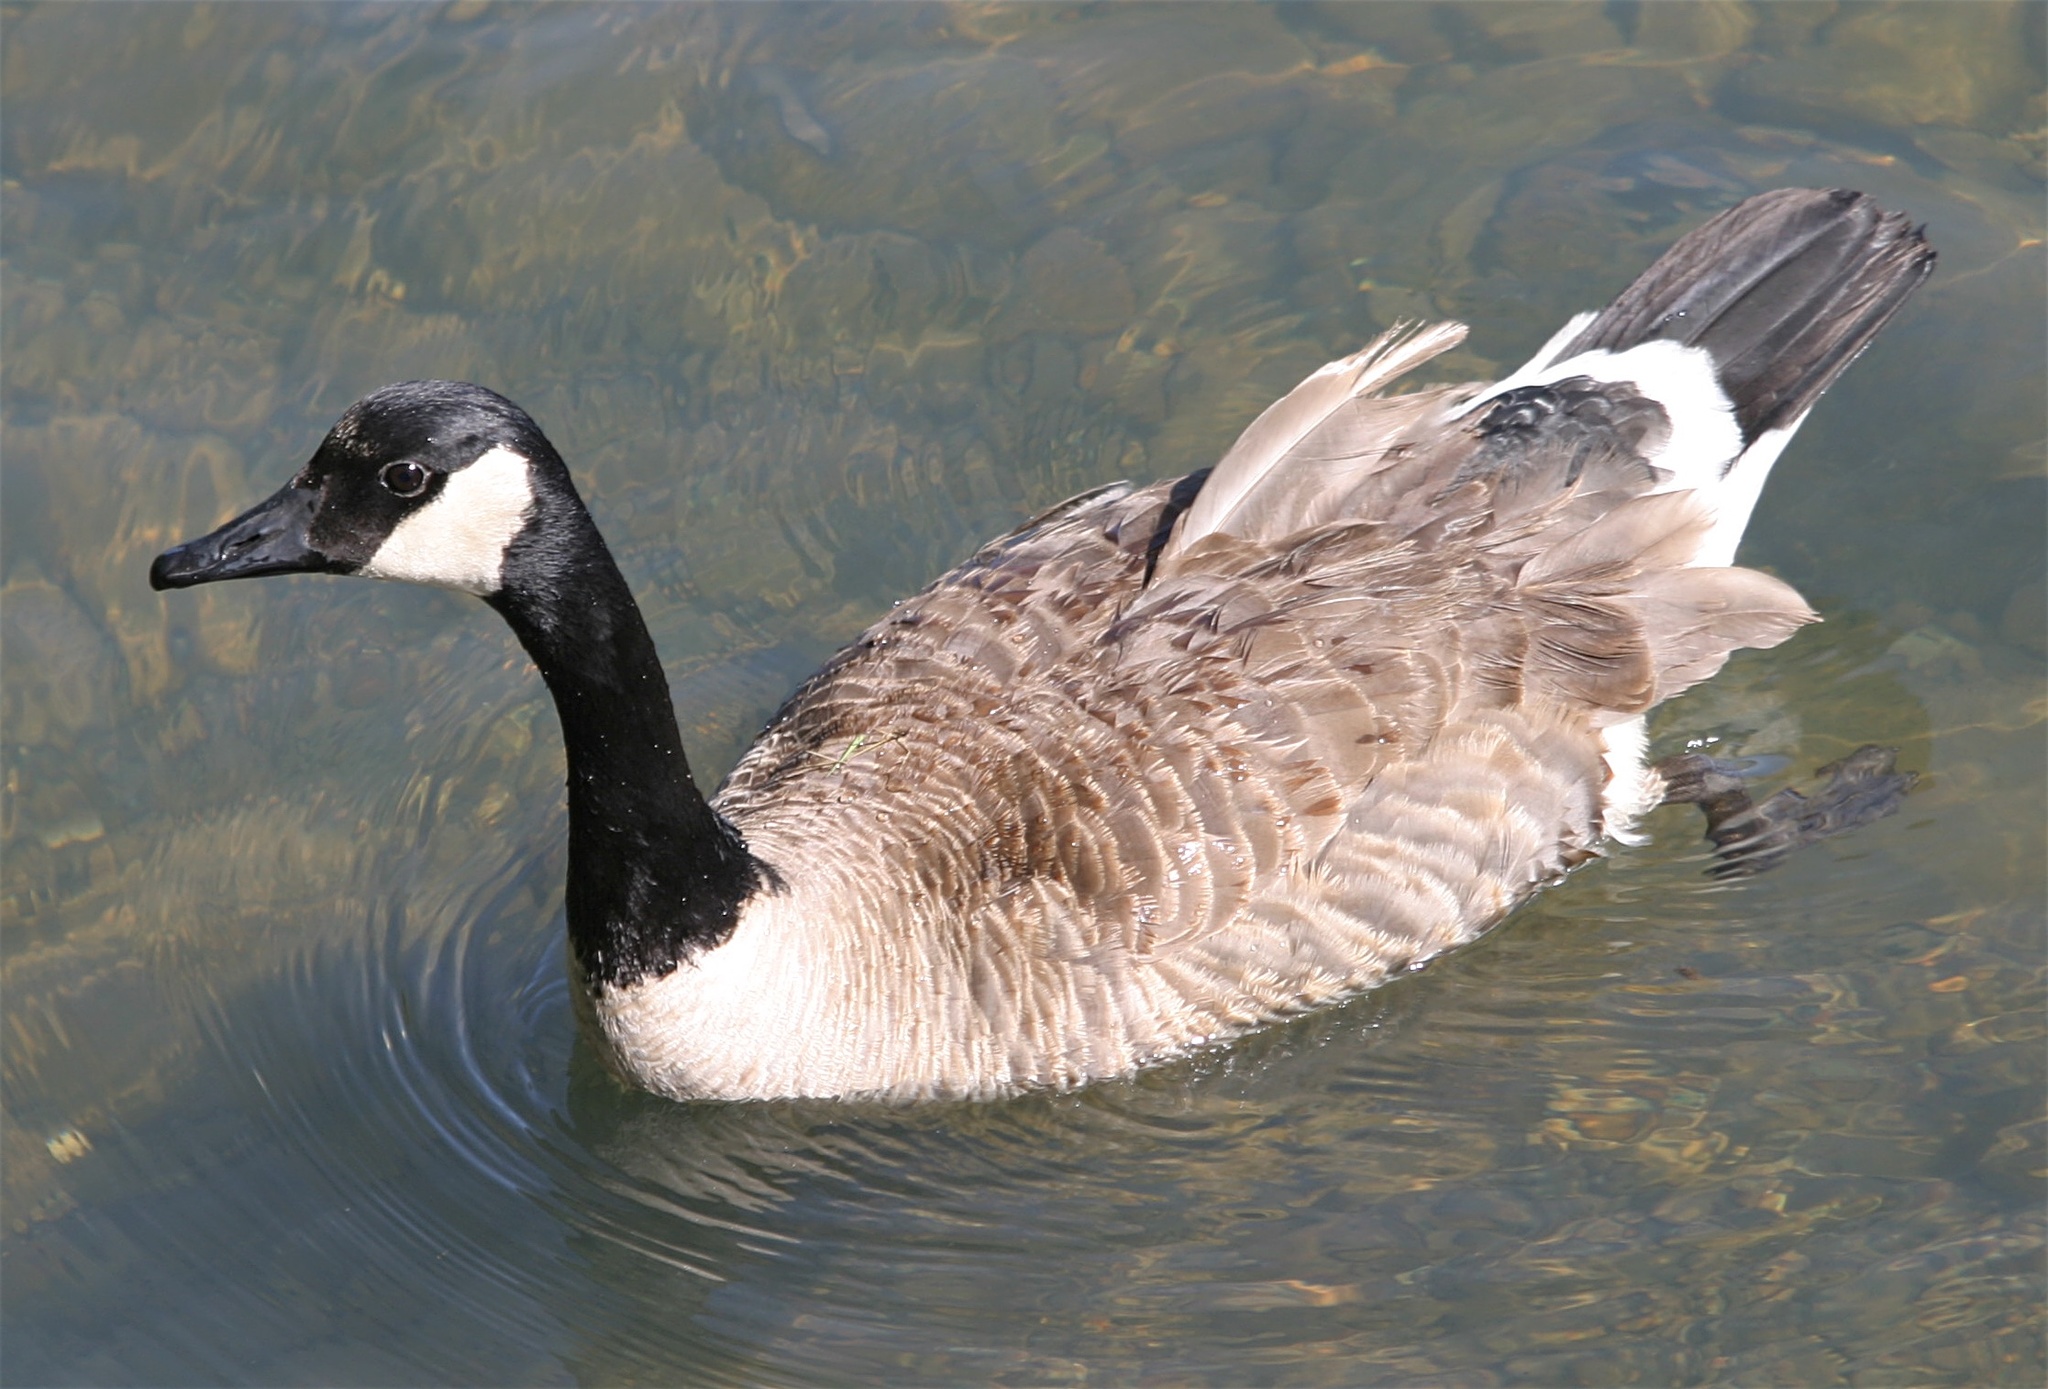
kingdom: Animalia
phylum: Chordata
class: Aves
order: Anseriformes
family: Anatidae
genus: Branta
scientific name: Branta canadensis
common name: Canada goose
